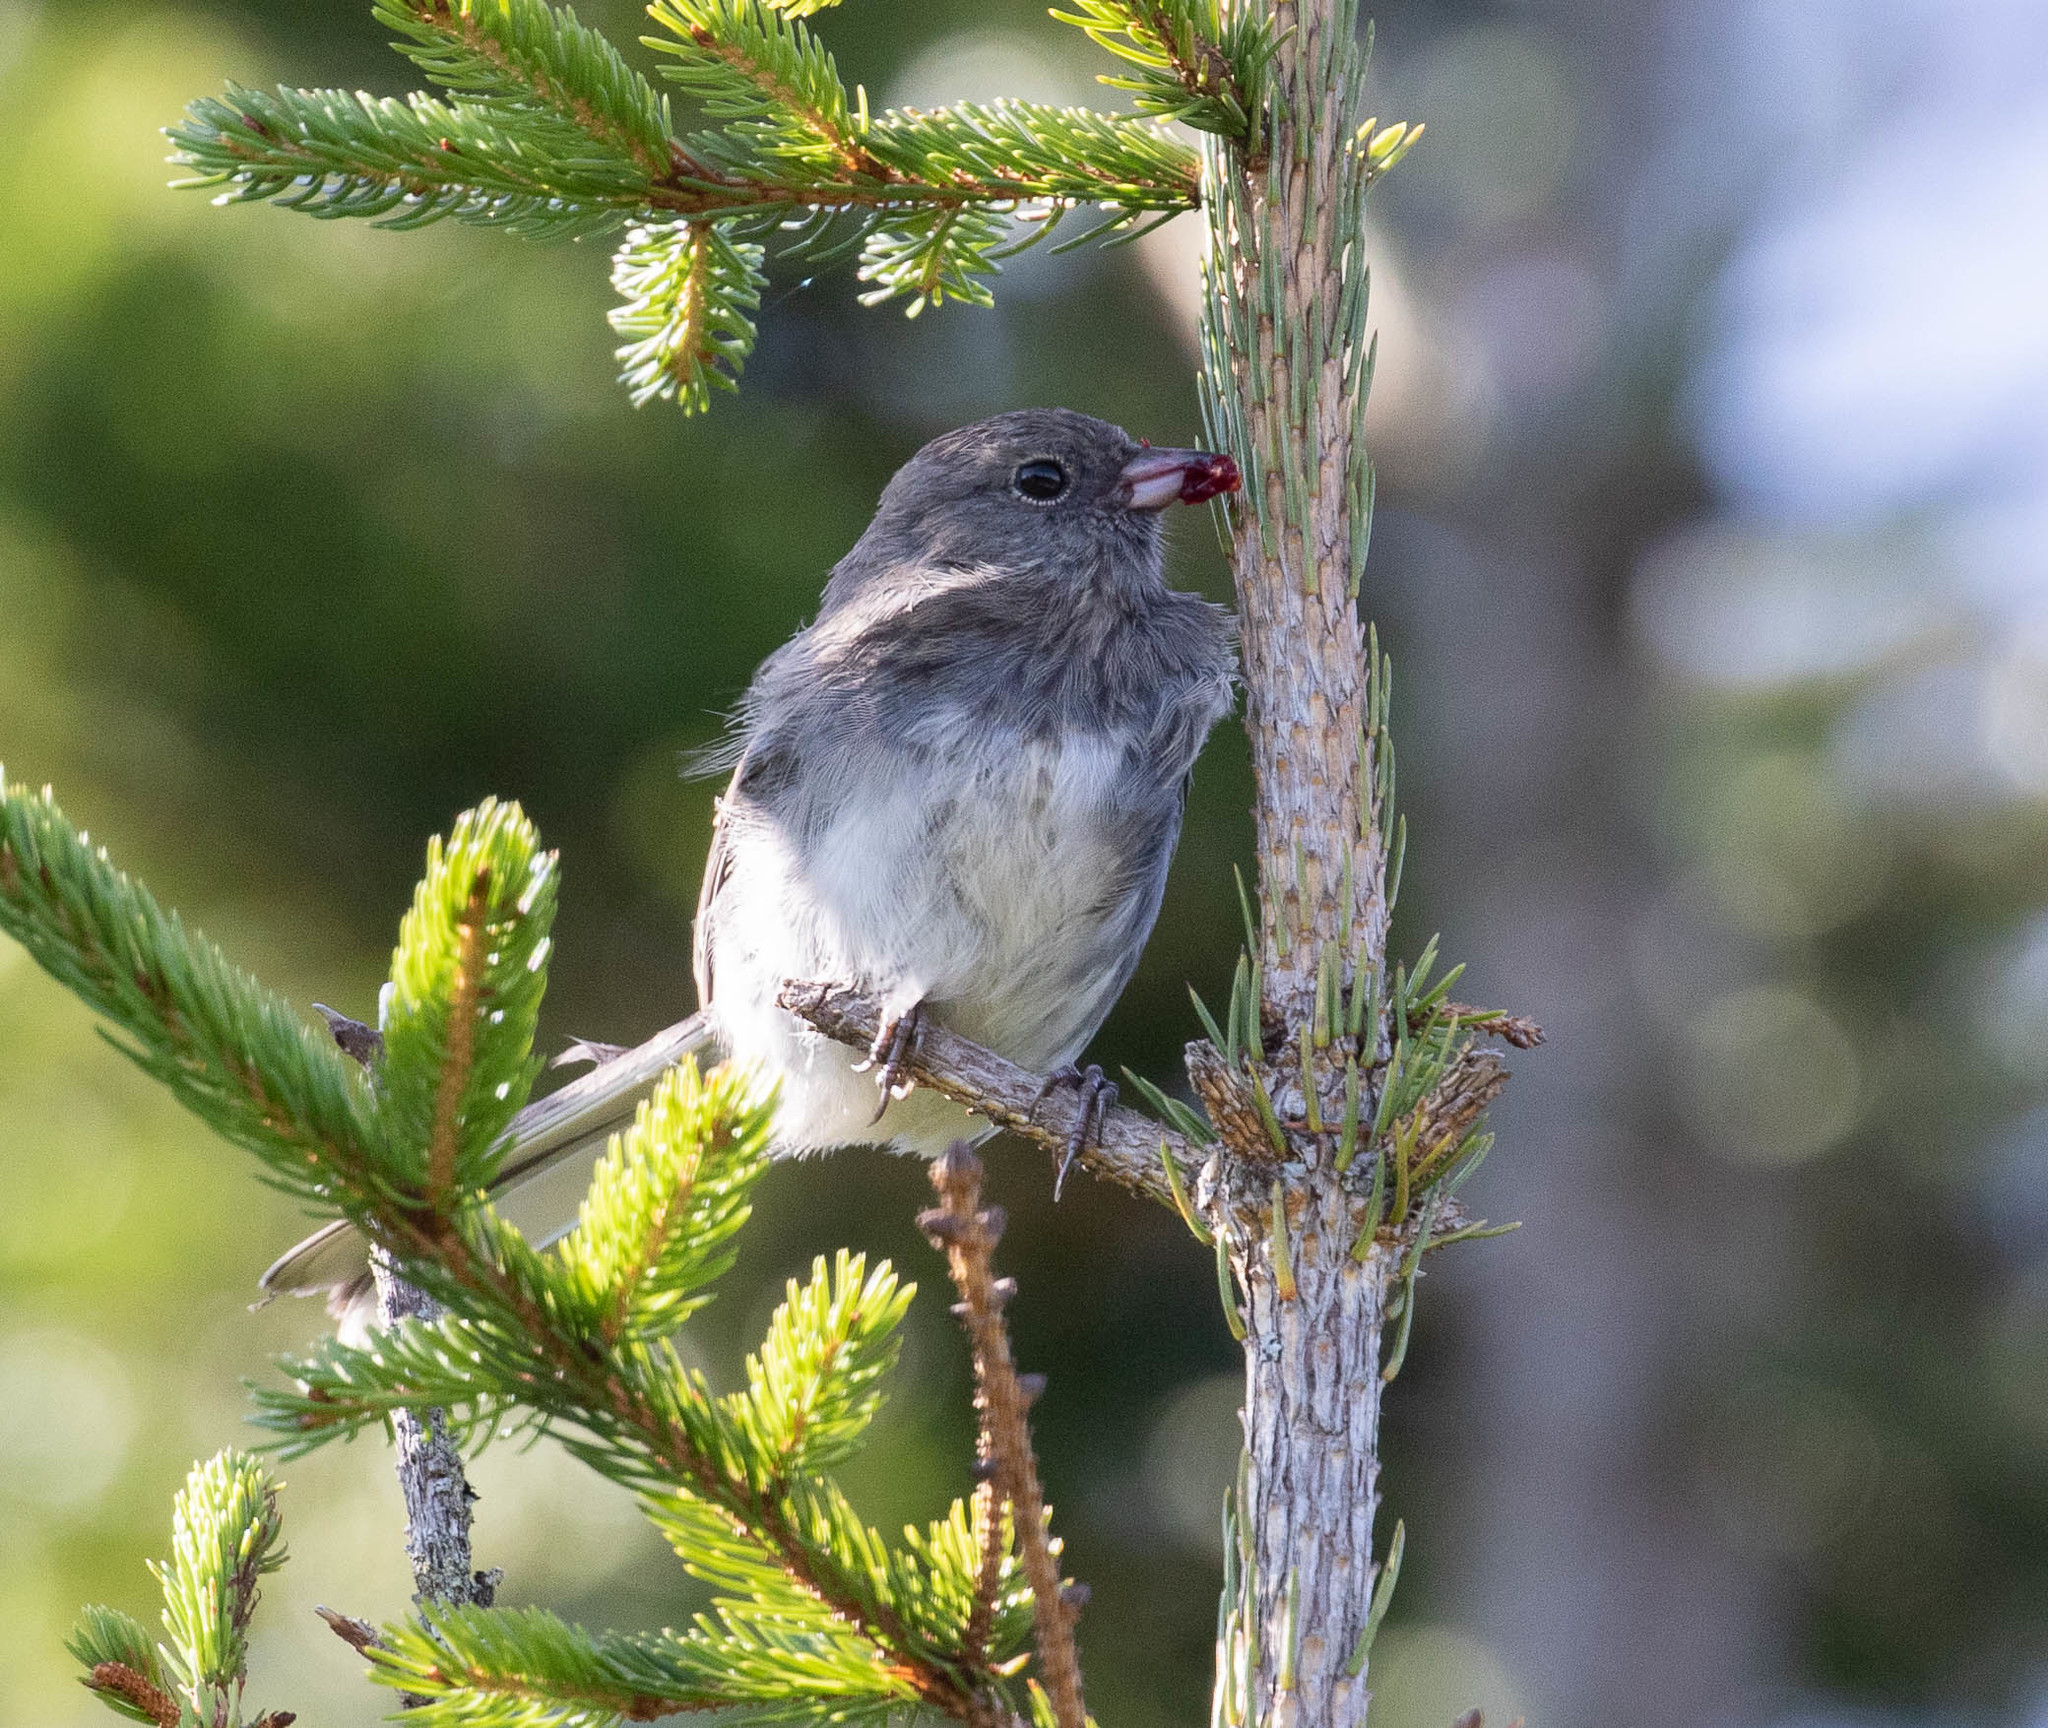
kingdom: Animalia
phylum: Chordata
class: Aves
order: Passeriformes
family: Passerellidae
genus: Junco
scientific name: Junco hyemalis
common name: Dark-eyed junco
